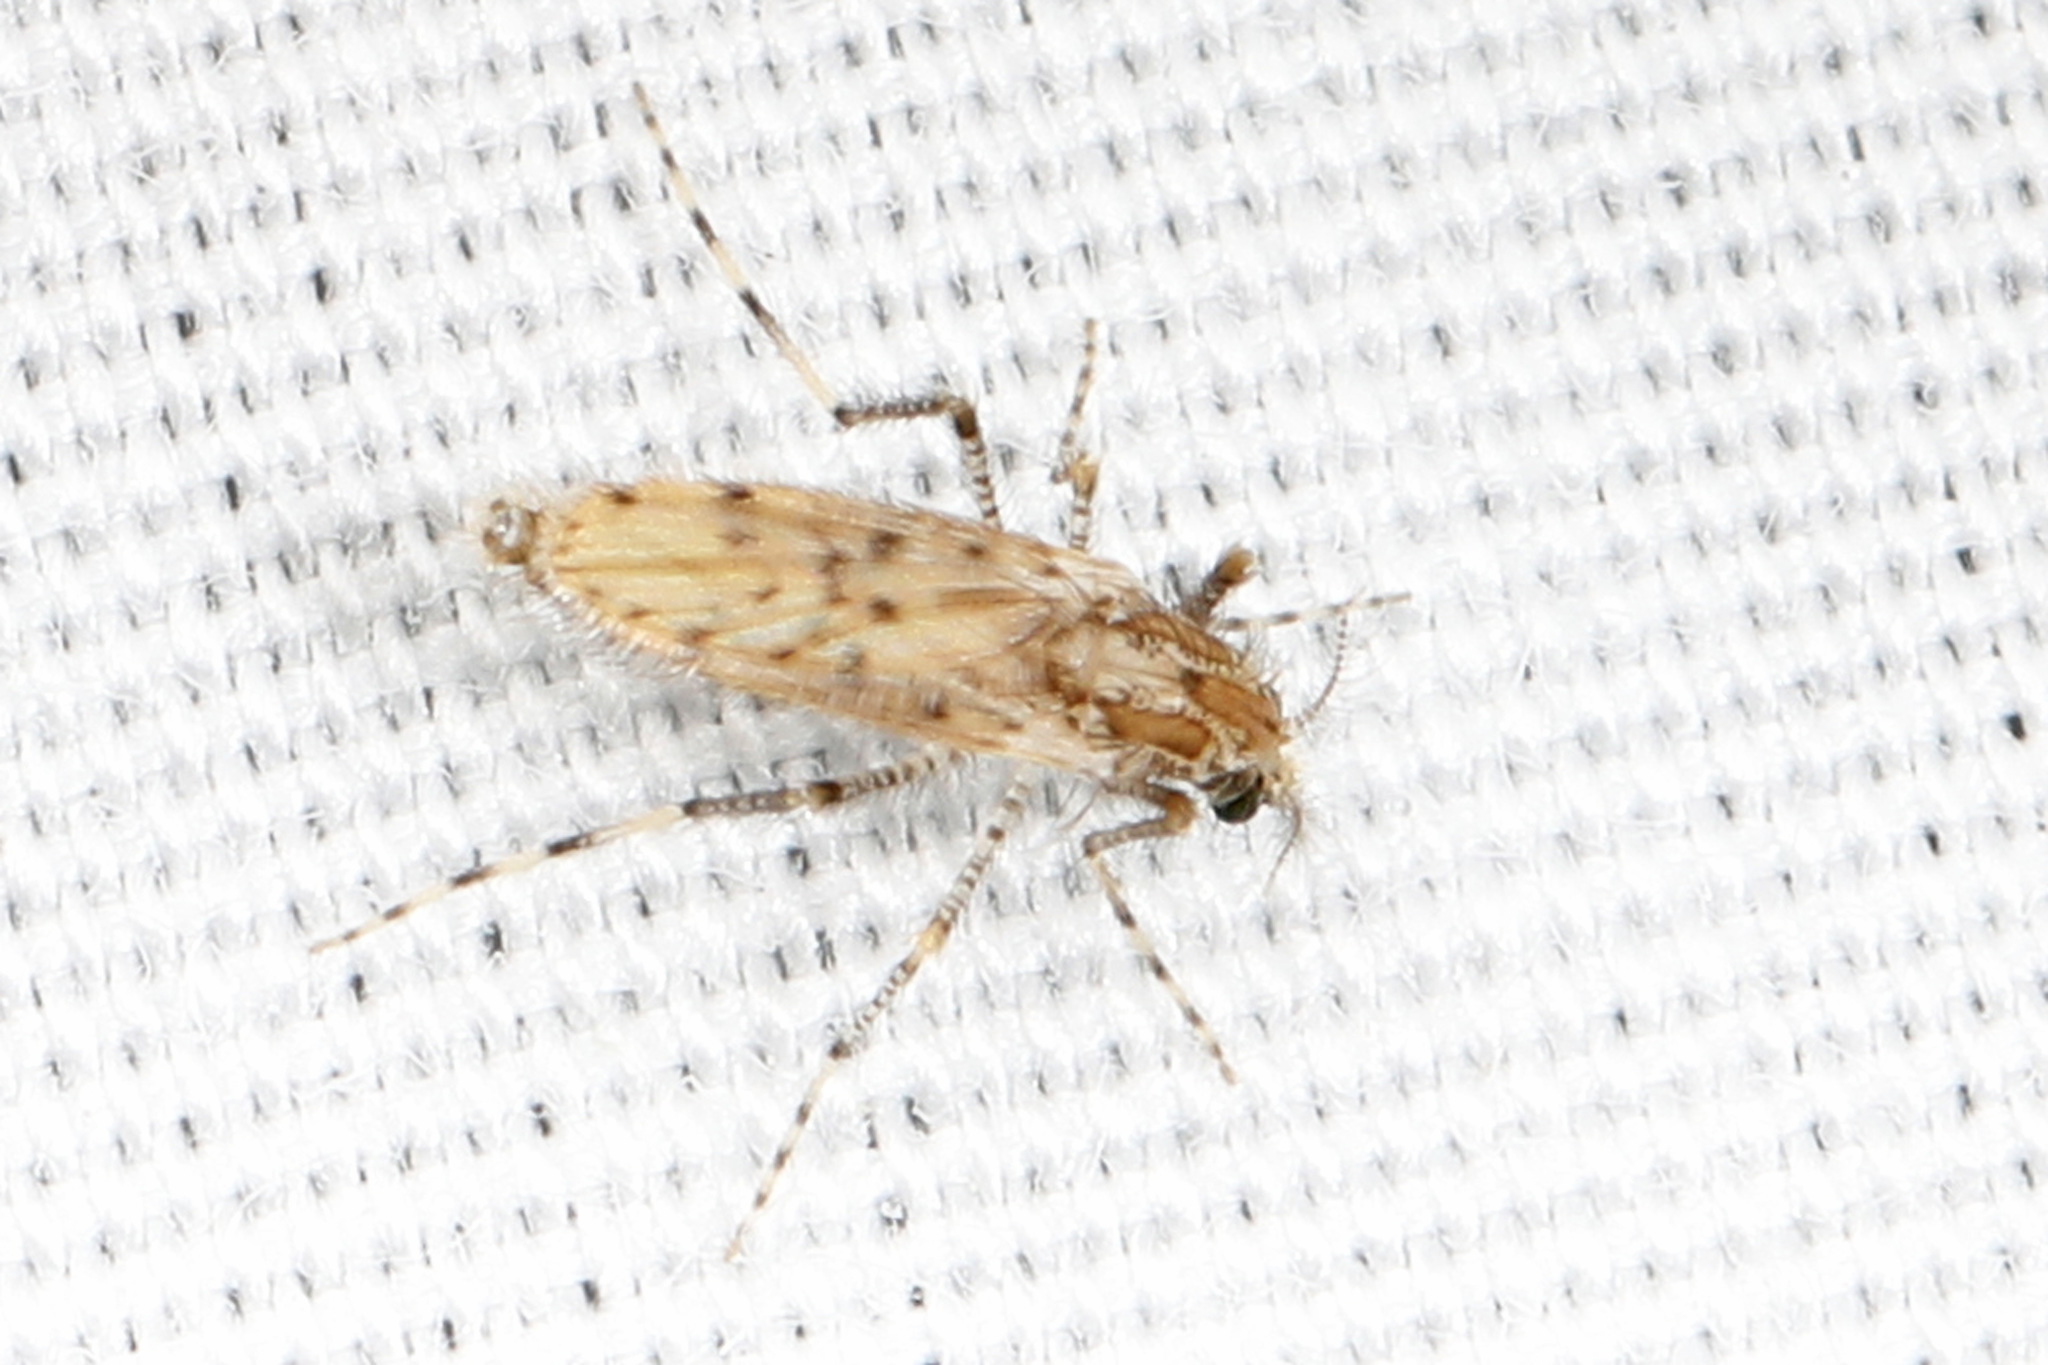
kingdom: Animalia
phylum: Arthropoda
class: Insecta
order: Diptera
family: Chaoboridae
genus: Chaoborus
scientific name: Chaoborus punctipennis
